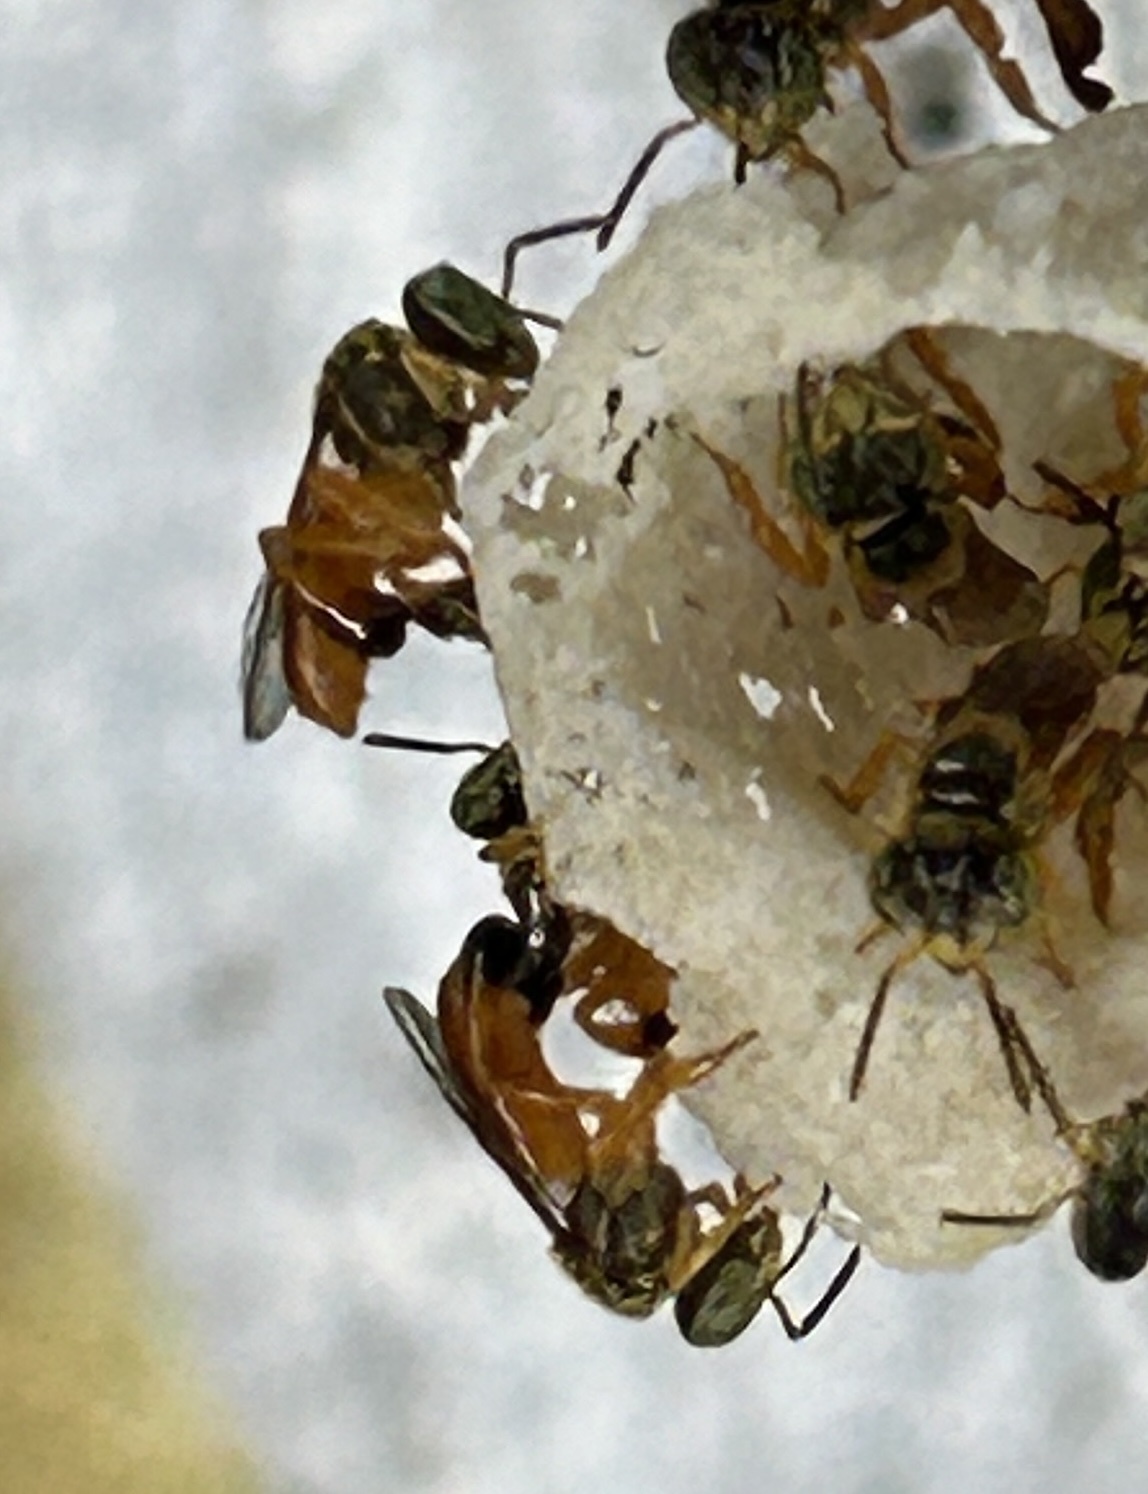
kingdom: Animalia
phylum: Arthropoda
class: Insecta
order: Hymenoptera
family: Apidae
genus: Tetragonisca
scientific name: Tetragonisca angustula
